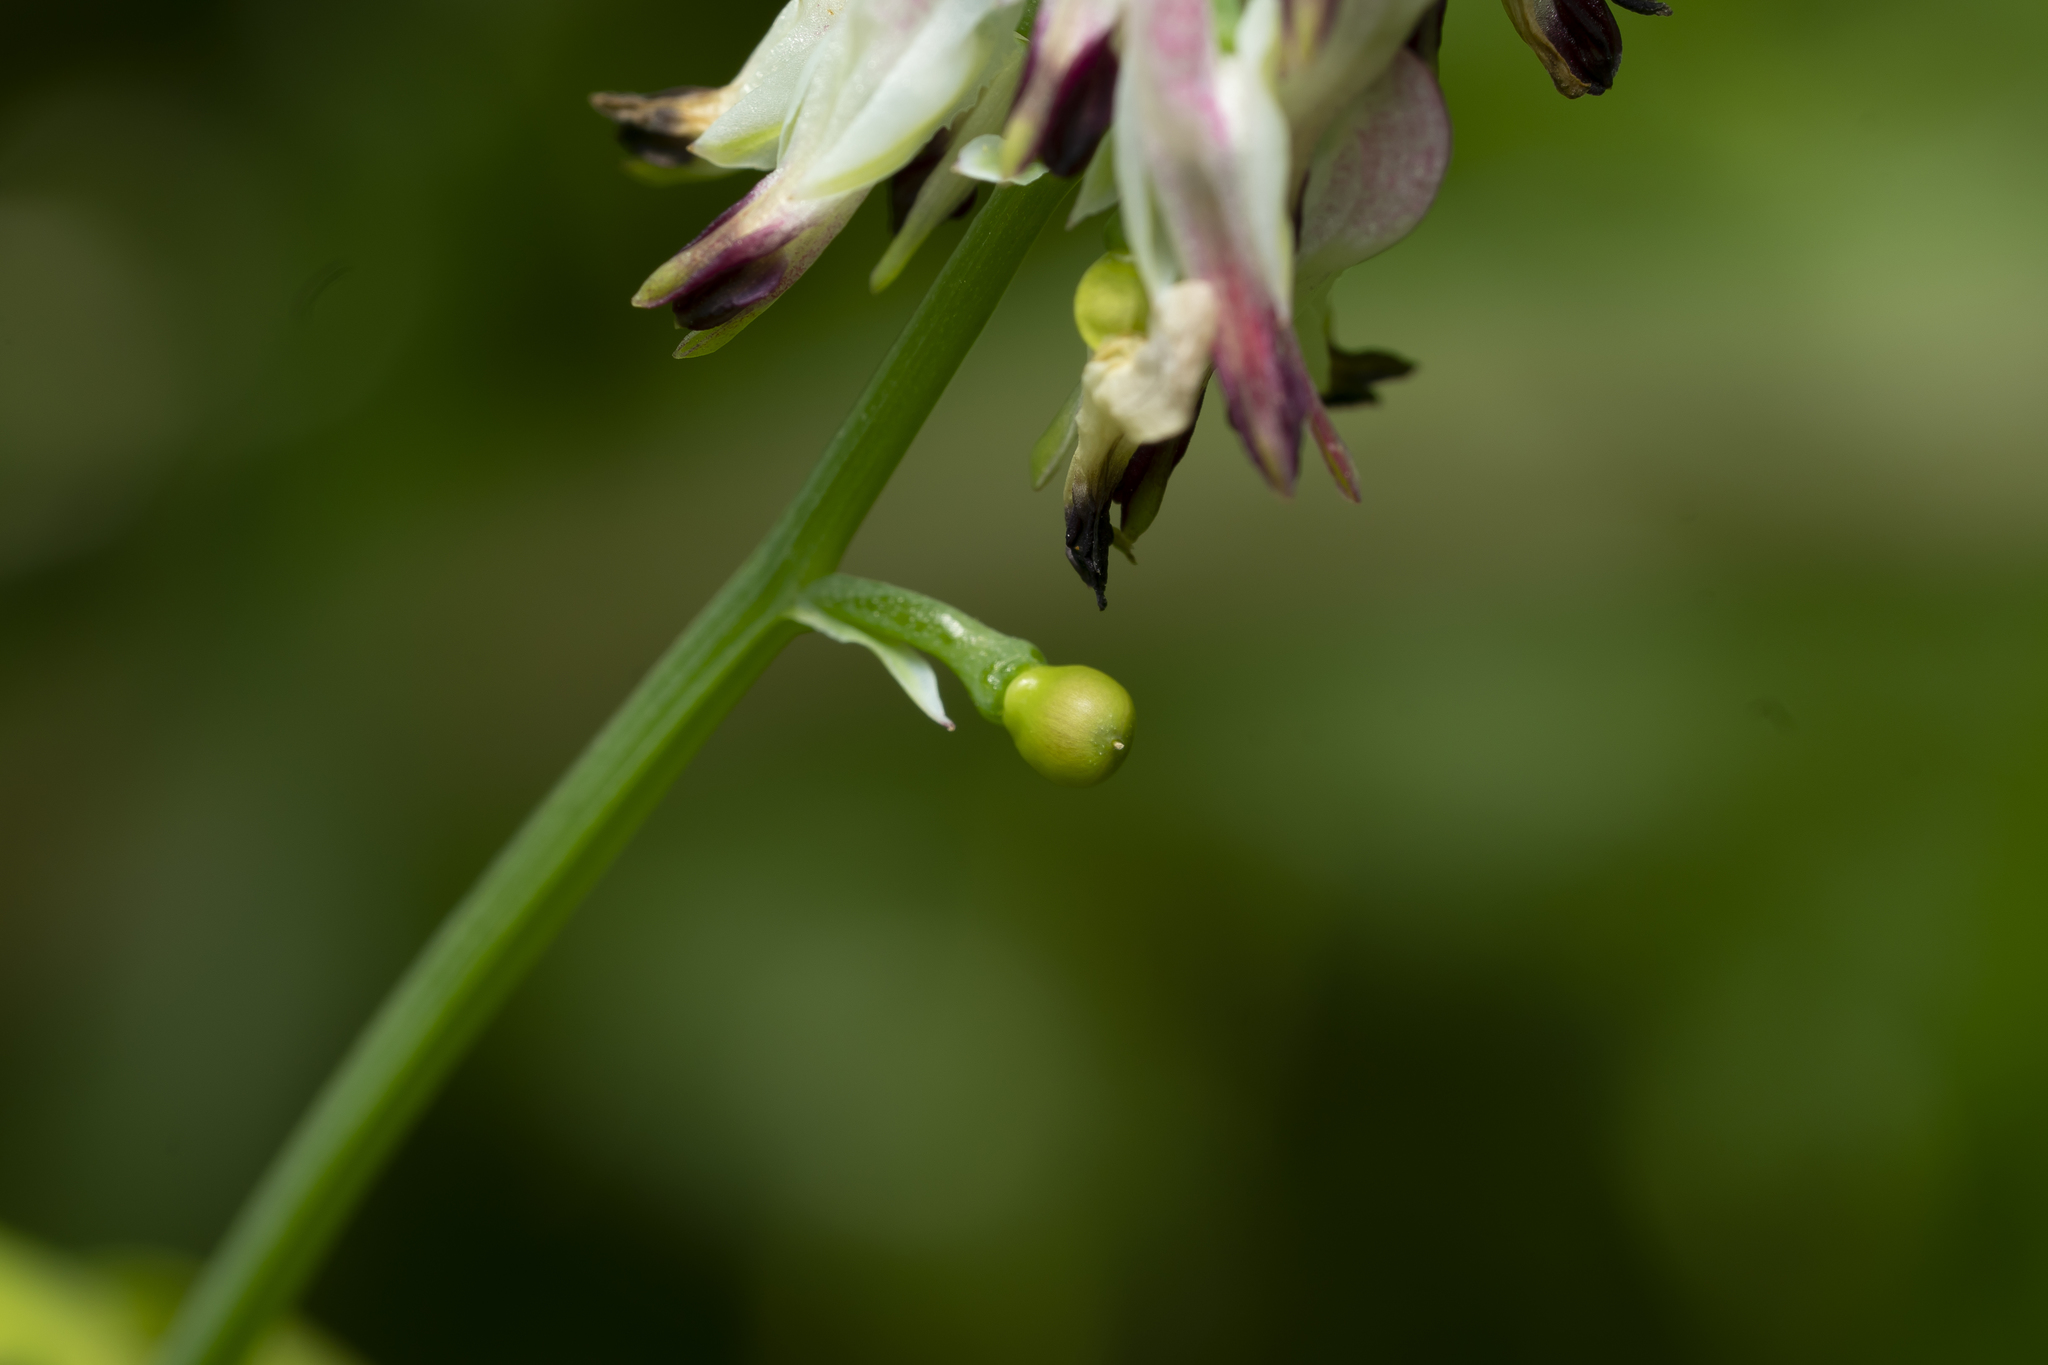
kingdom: Plantae
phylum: Tracheophyta
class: Magnoliopsida
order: Ranunculales
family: Papaveraceae
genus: Fumaria
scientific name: Fumaria capreolata
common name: White ramping-fumitory
